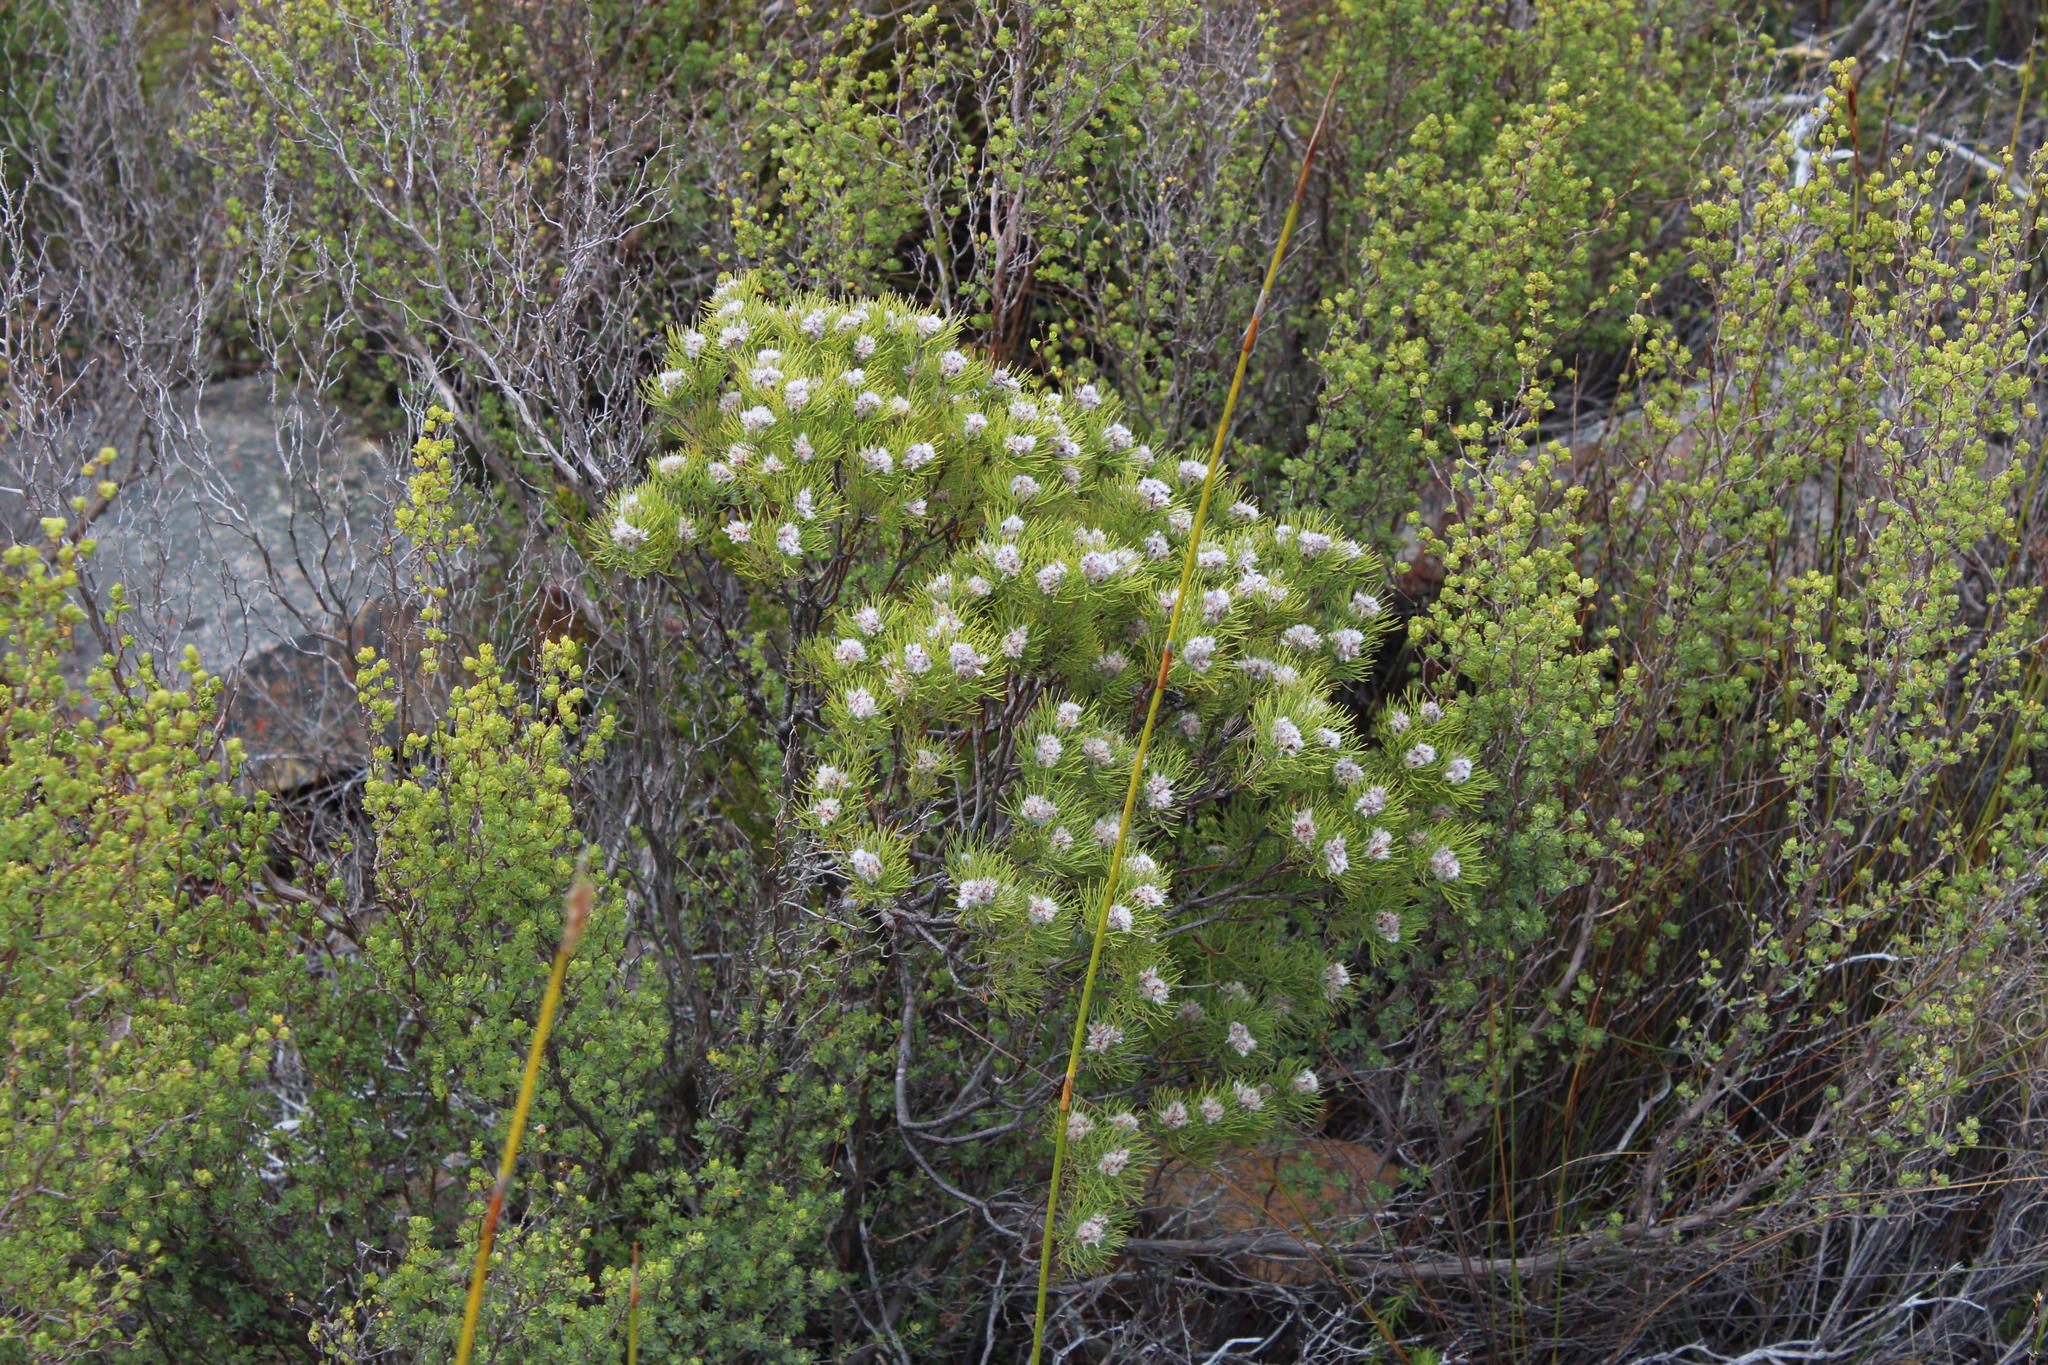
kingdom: Plantae
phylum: Tracheophyta
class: Magnoliopsida
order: Proteales
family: Proteaceae
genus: Paranomus
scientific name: Paranomus capitatus
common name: Fine-leaf sceptre
